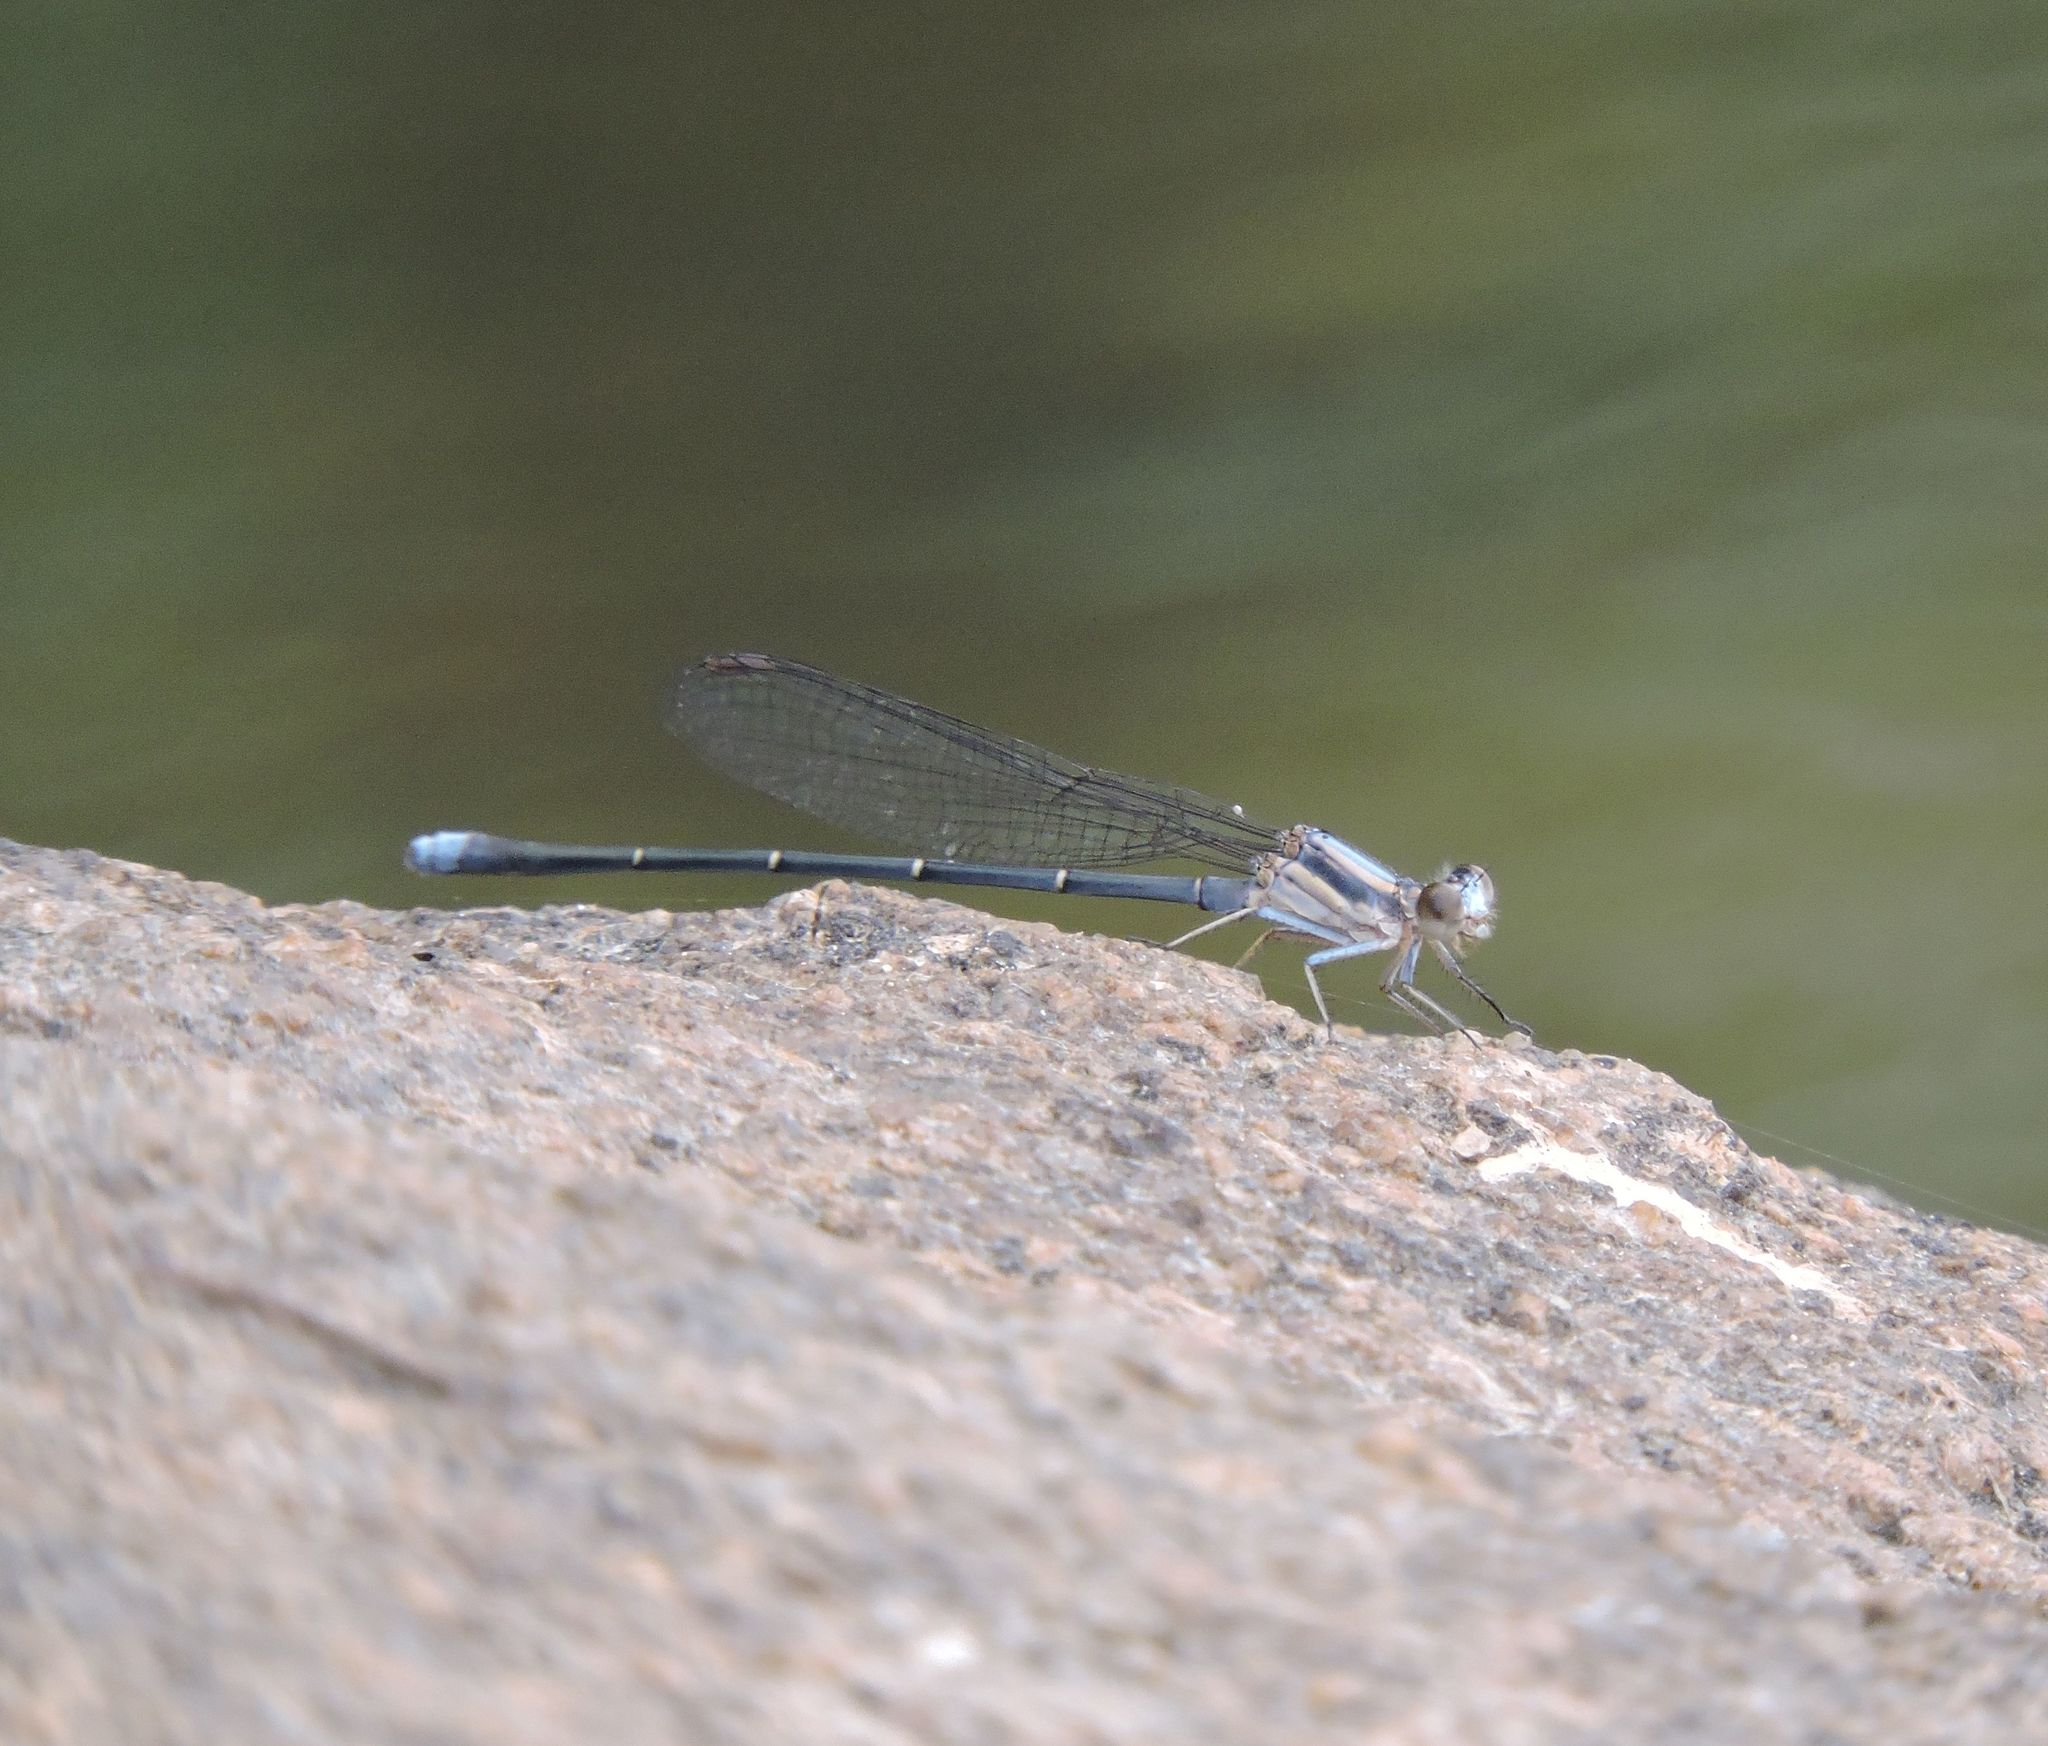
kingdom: Animalia
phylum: Arthropoda
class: Insecta
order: Odonata
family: Coenagrionidae
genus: Argia
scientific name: Argia moesta
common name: Powdered dancer
